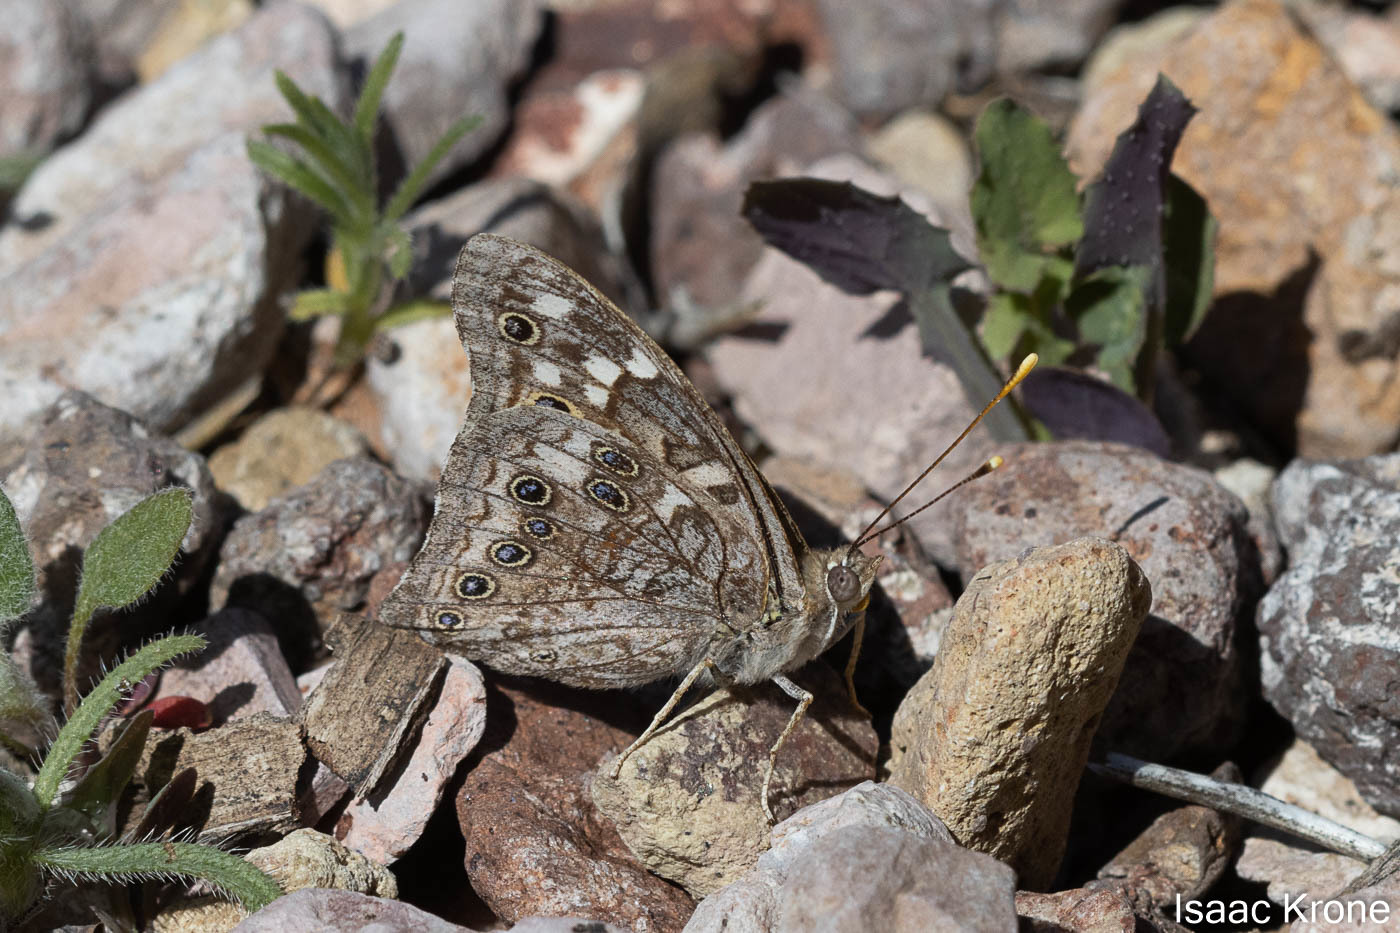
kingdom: Animalia
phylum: Arthropoda
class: Insecta
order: Lepidoptera
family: Nymphalidae
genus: Asterocampa
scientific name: Asterocampa leilia
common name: Empress leilia
